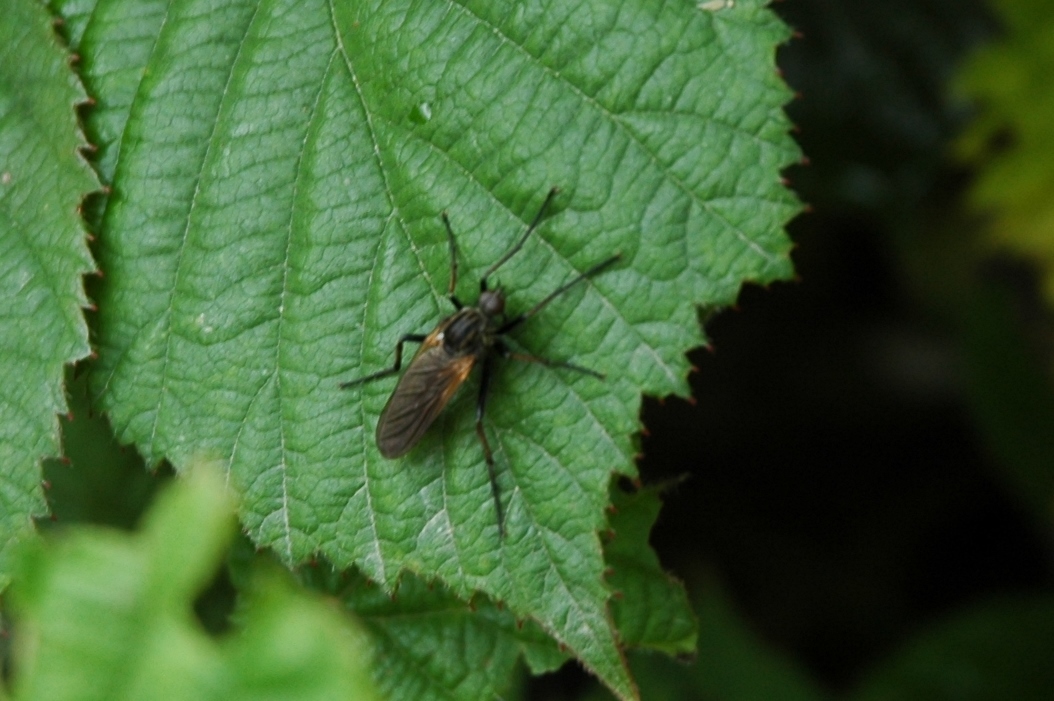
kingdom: Animalia
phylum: Arthropoda
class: Insecta
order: Diptera
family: Empididae
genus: Empis
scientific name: Empis tessellata
